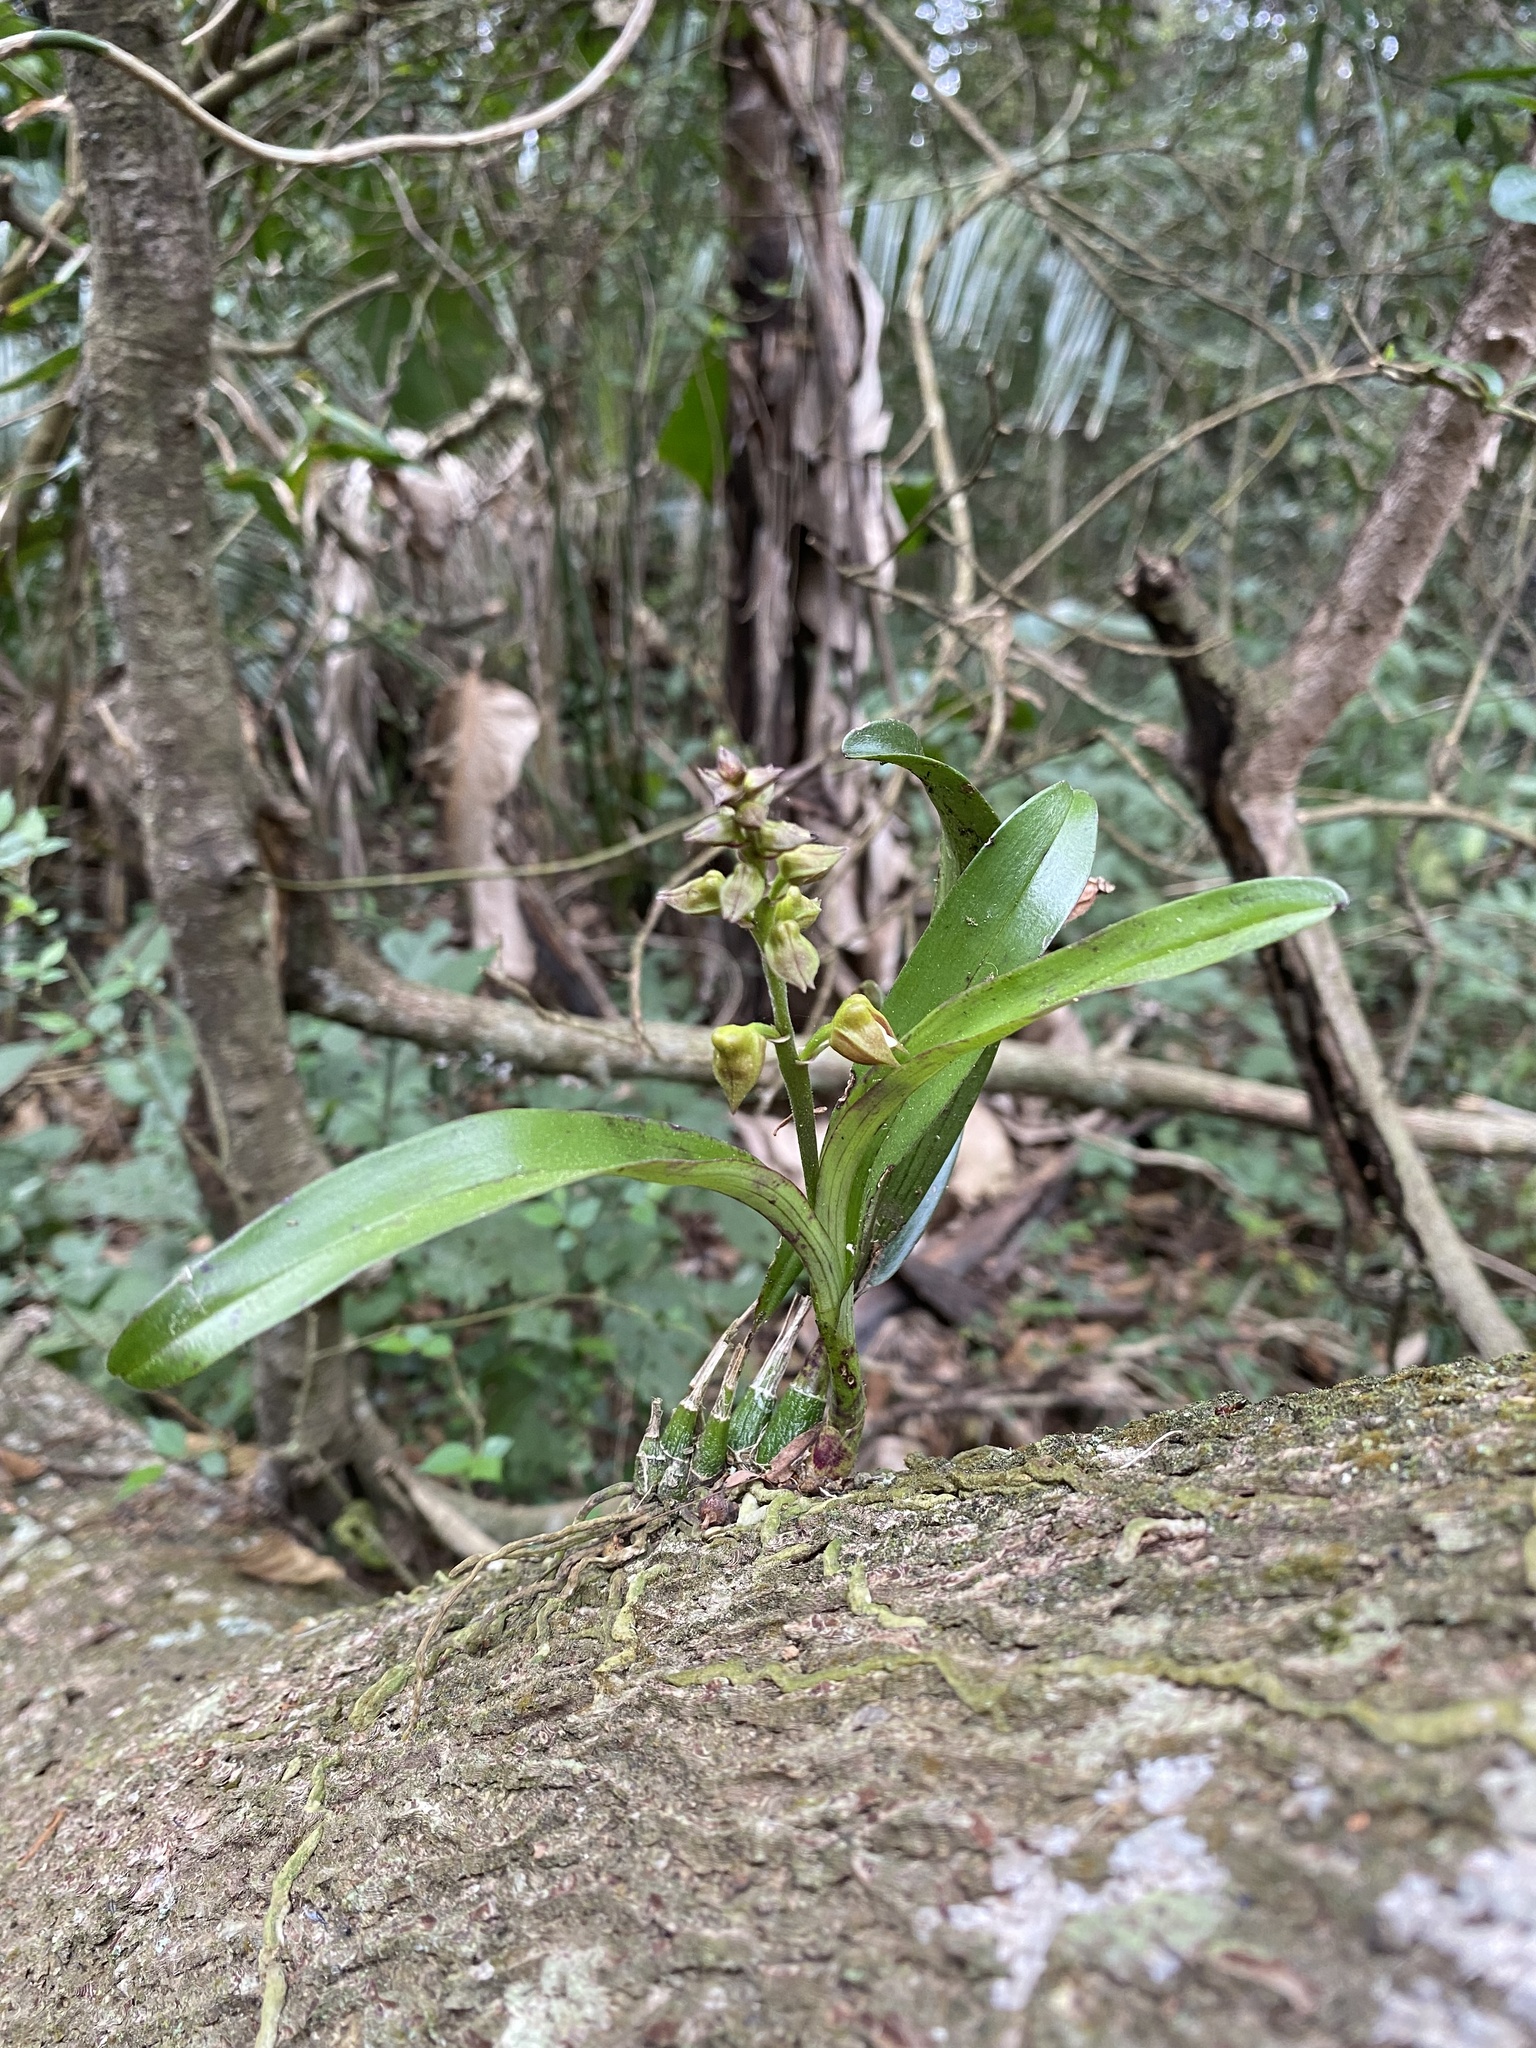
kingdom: Plantae
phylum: Tracheophyta
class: Liliopsida
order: Asparagales
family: Orchidaceae
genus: Polystachya
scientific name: Polystachya sandersonii
